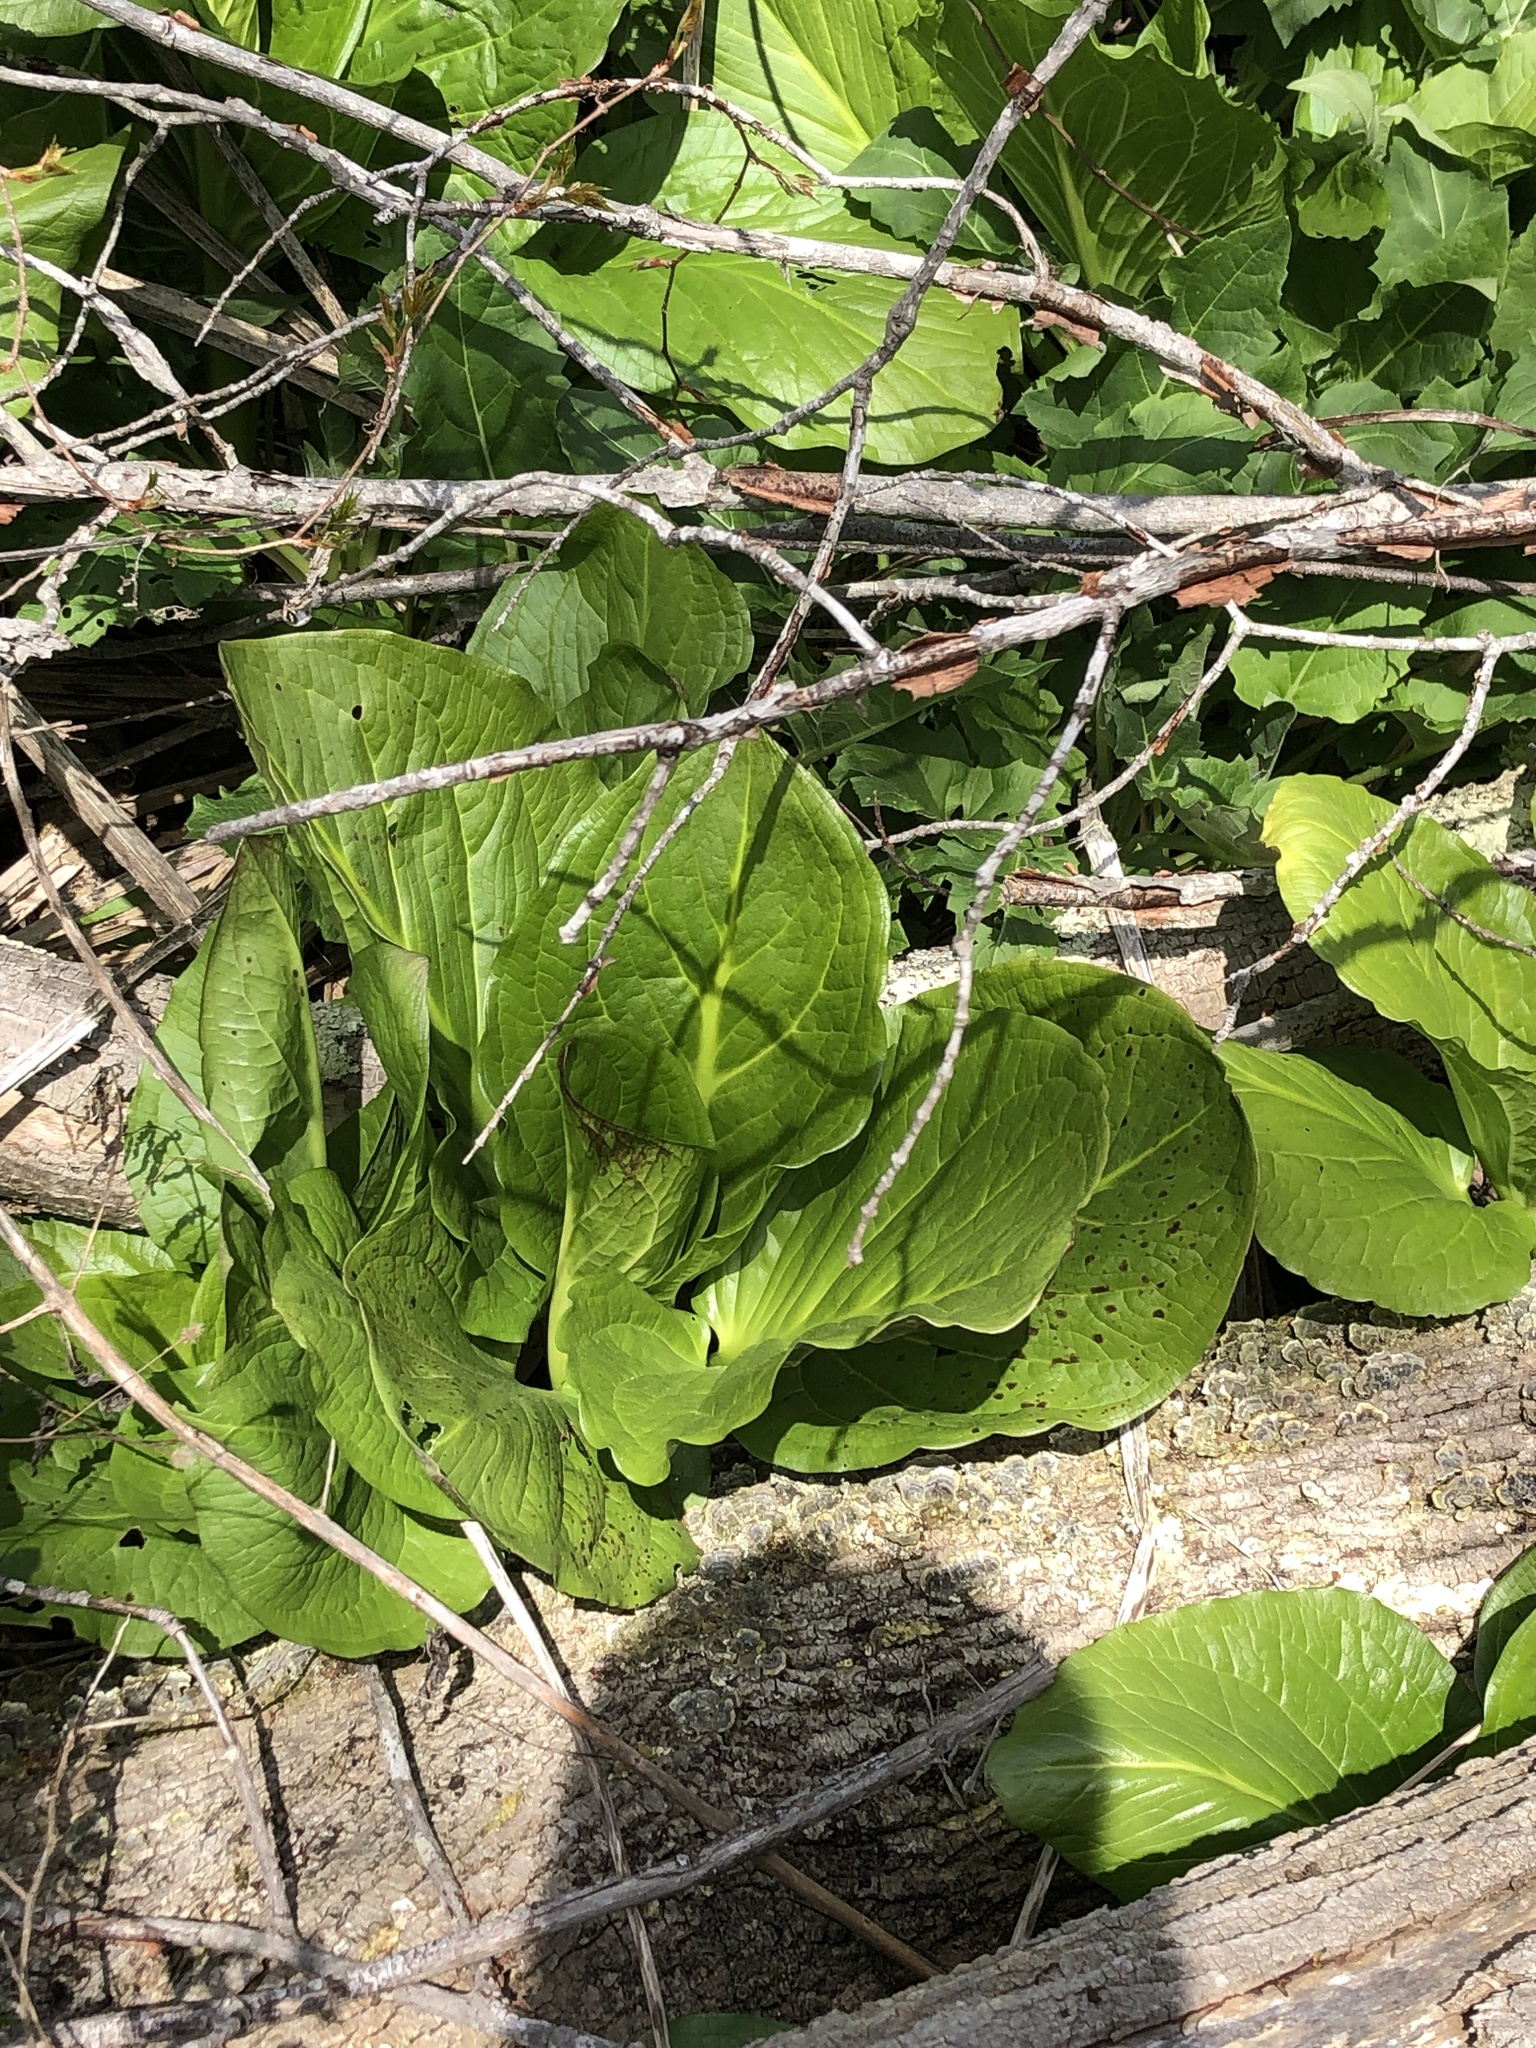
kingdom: Plantae
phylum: Tracheophyta
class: Liliopsida
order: Alismatales
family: Araceae
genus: Symplocarpus
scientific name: Symplocarpus foetidus
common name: Eastern skunk cabbage
